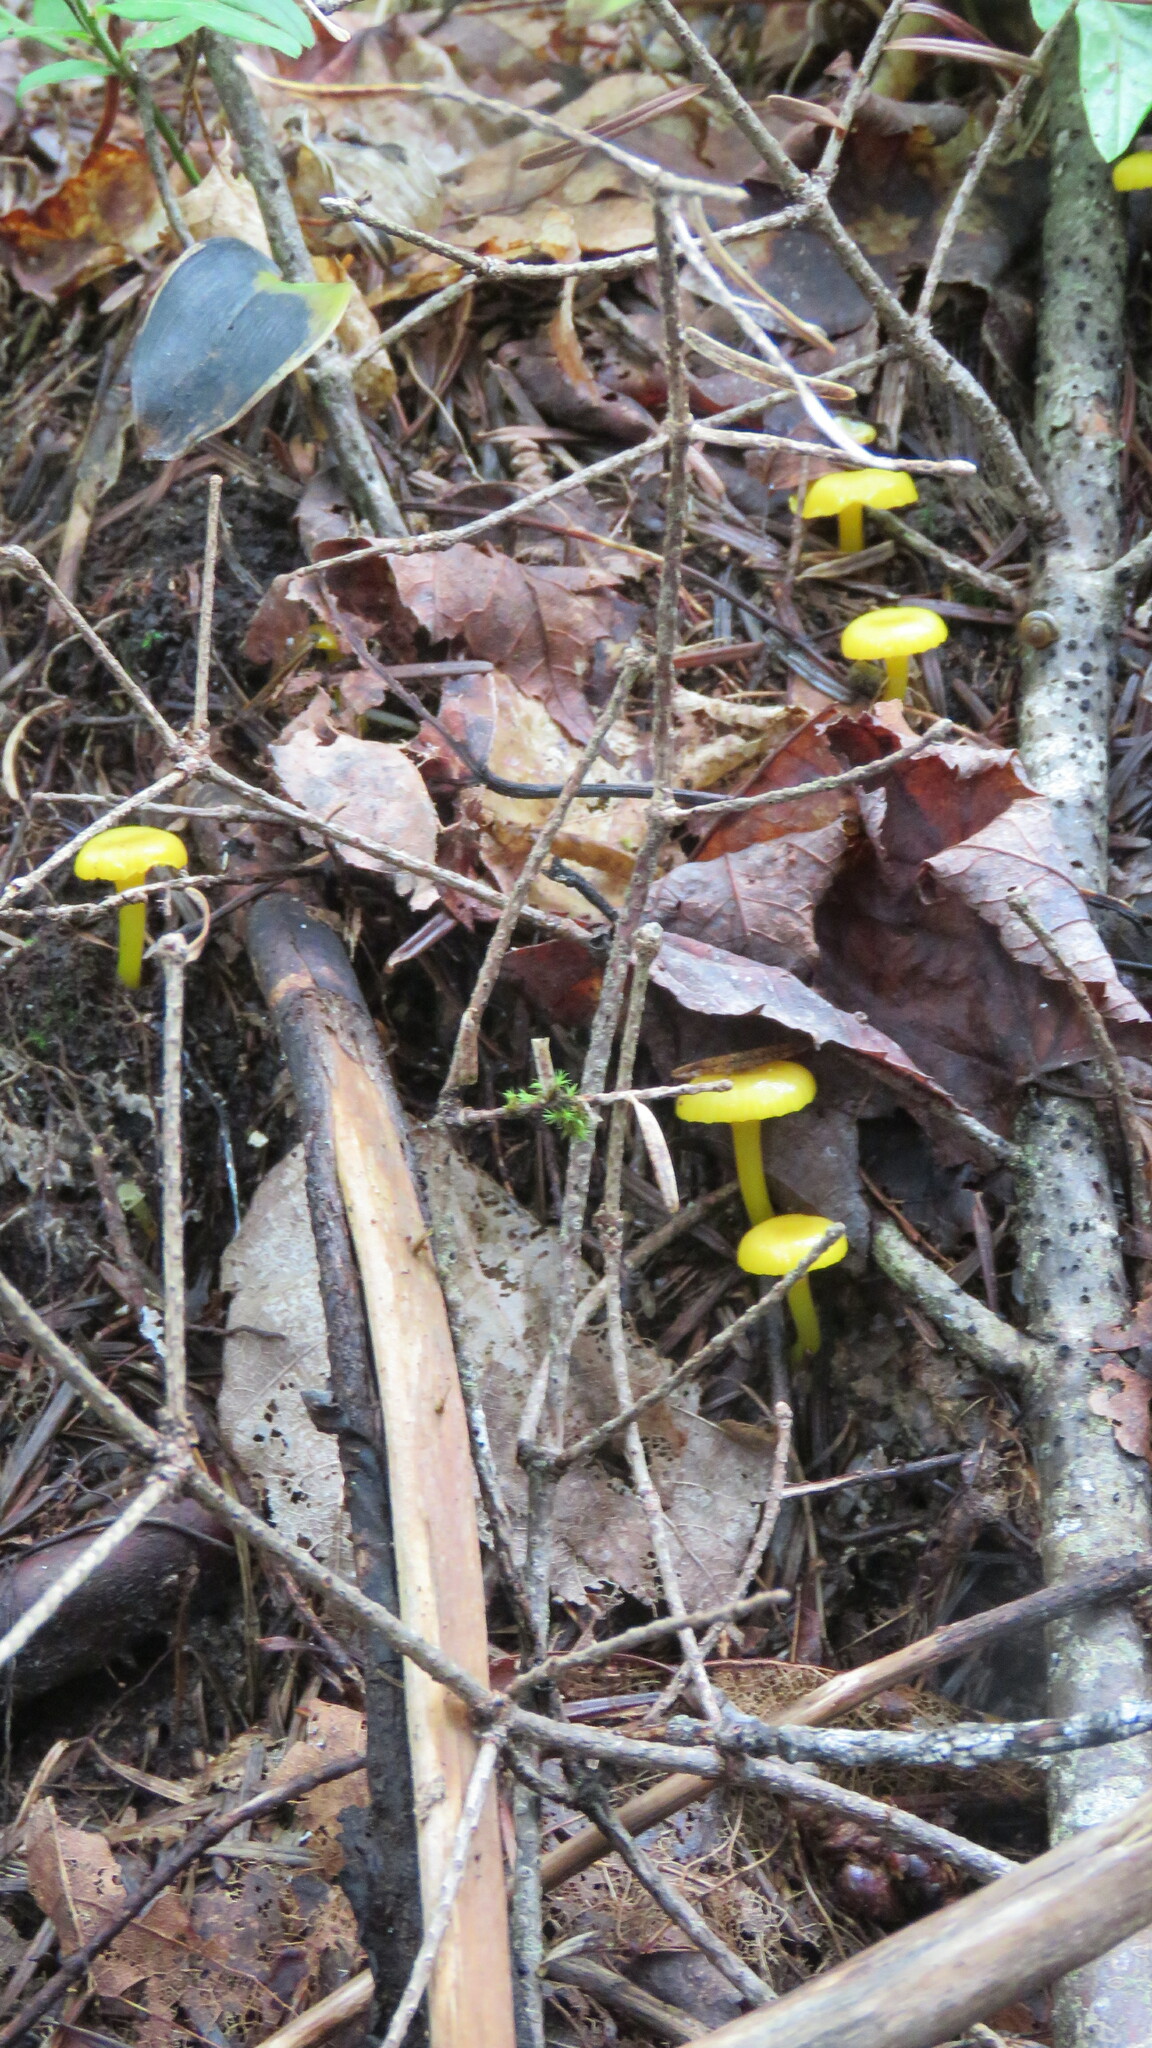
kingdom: Fungi
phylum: Basidiomycota
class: Agaricomycetes
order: Agaricales
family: Hygrophoraceae
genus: Gloioxanthomyces
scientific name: Gloioxanthomyces nitidus
